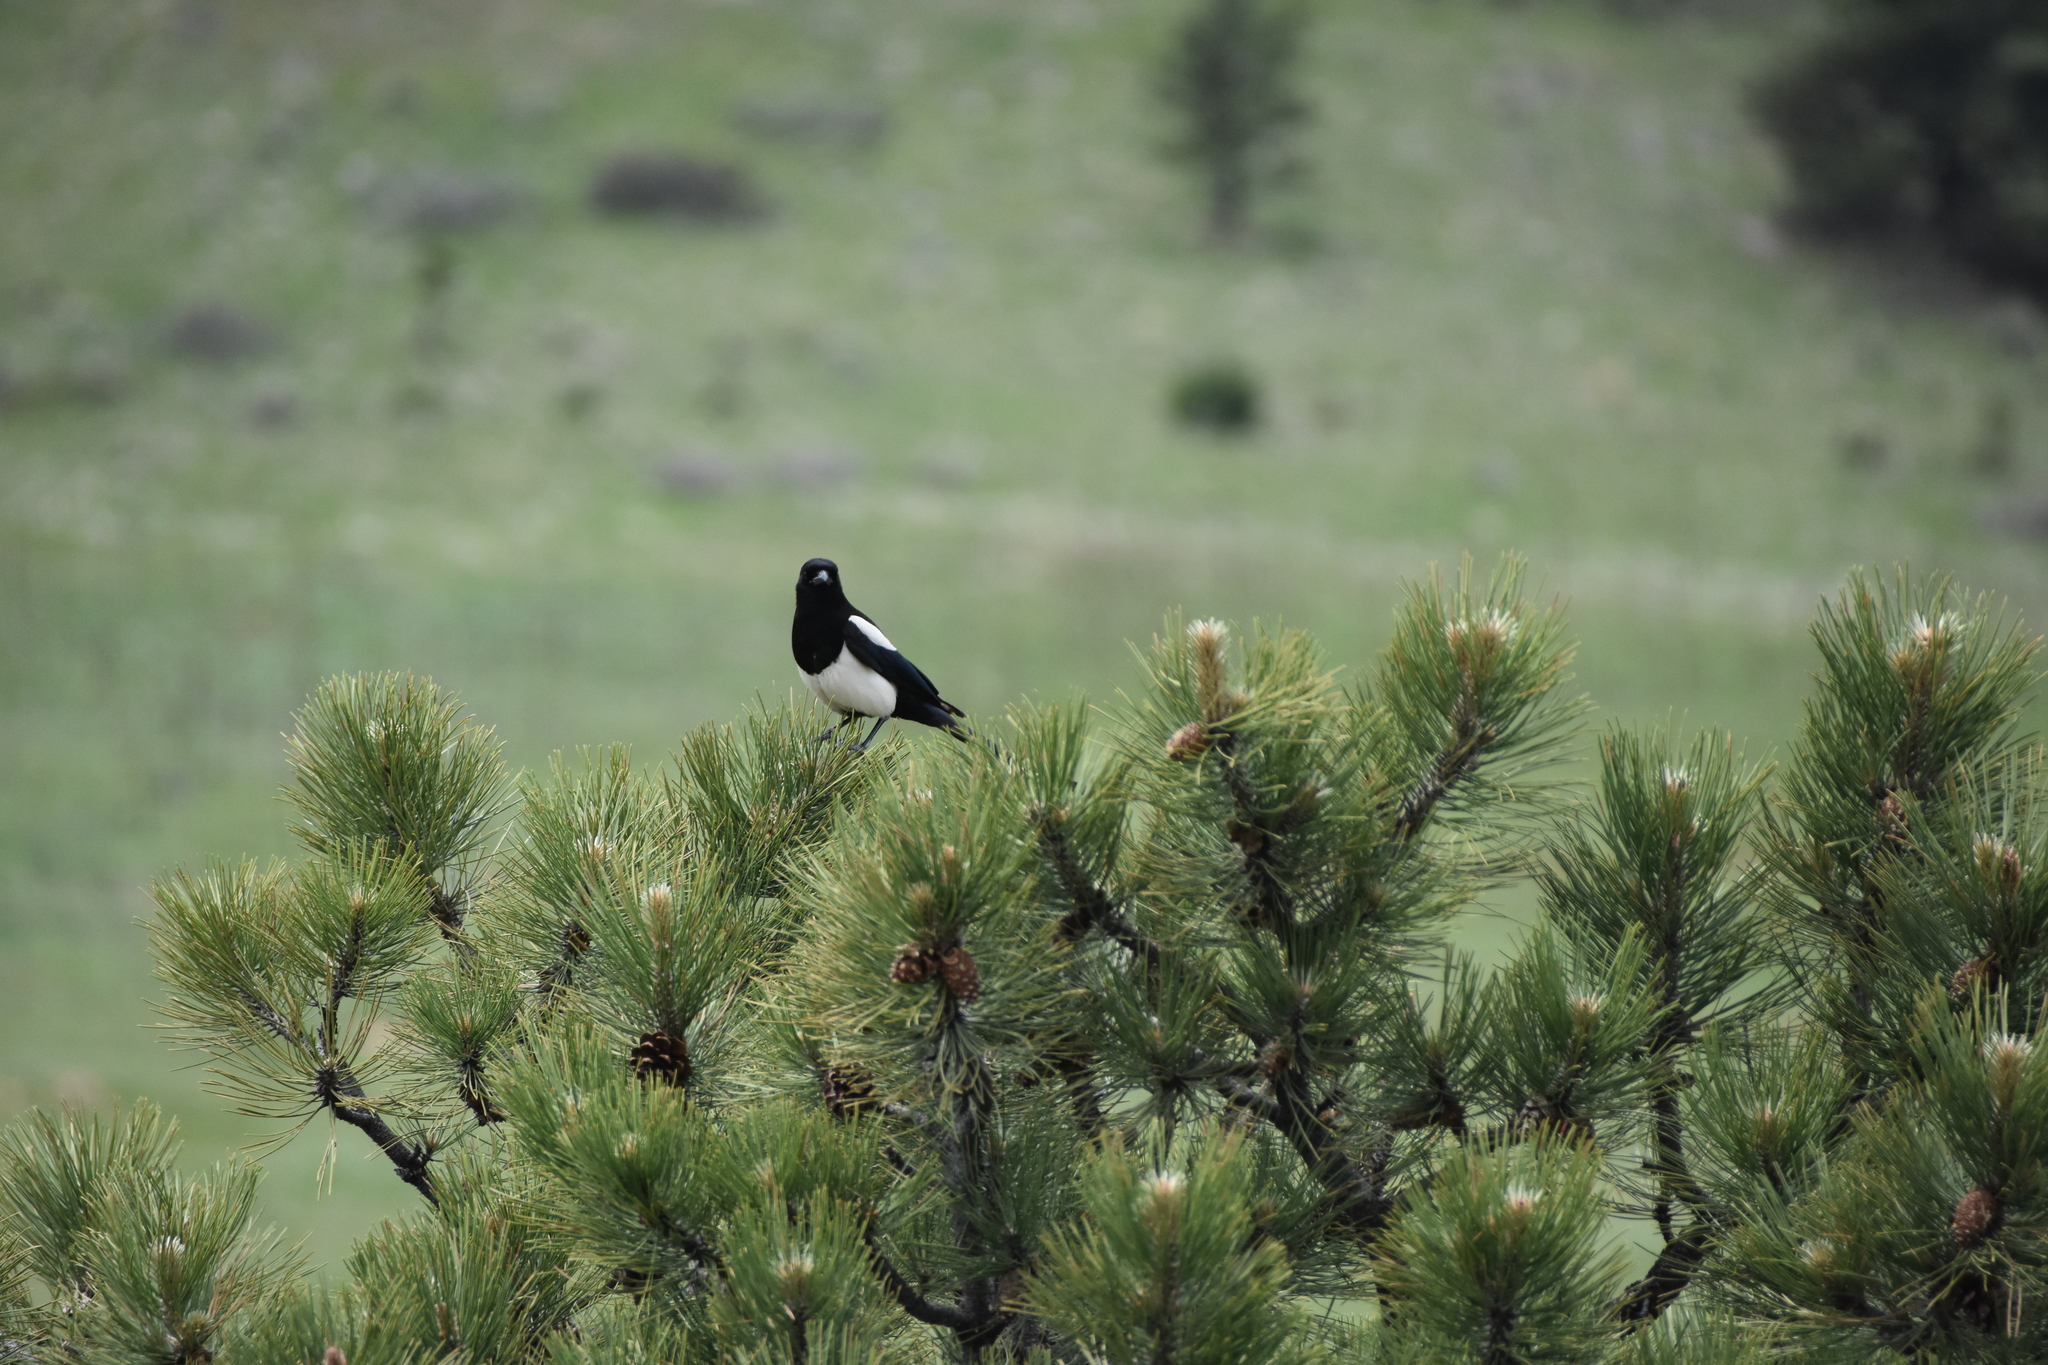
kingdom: Animalia
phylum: Chordata
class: Aves
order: Passeriformes
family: Corvidae
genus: Pica
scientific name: Pica hudsonia
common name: Black-billed magpie
